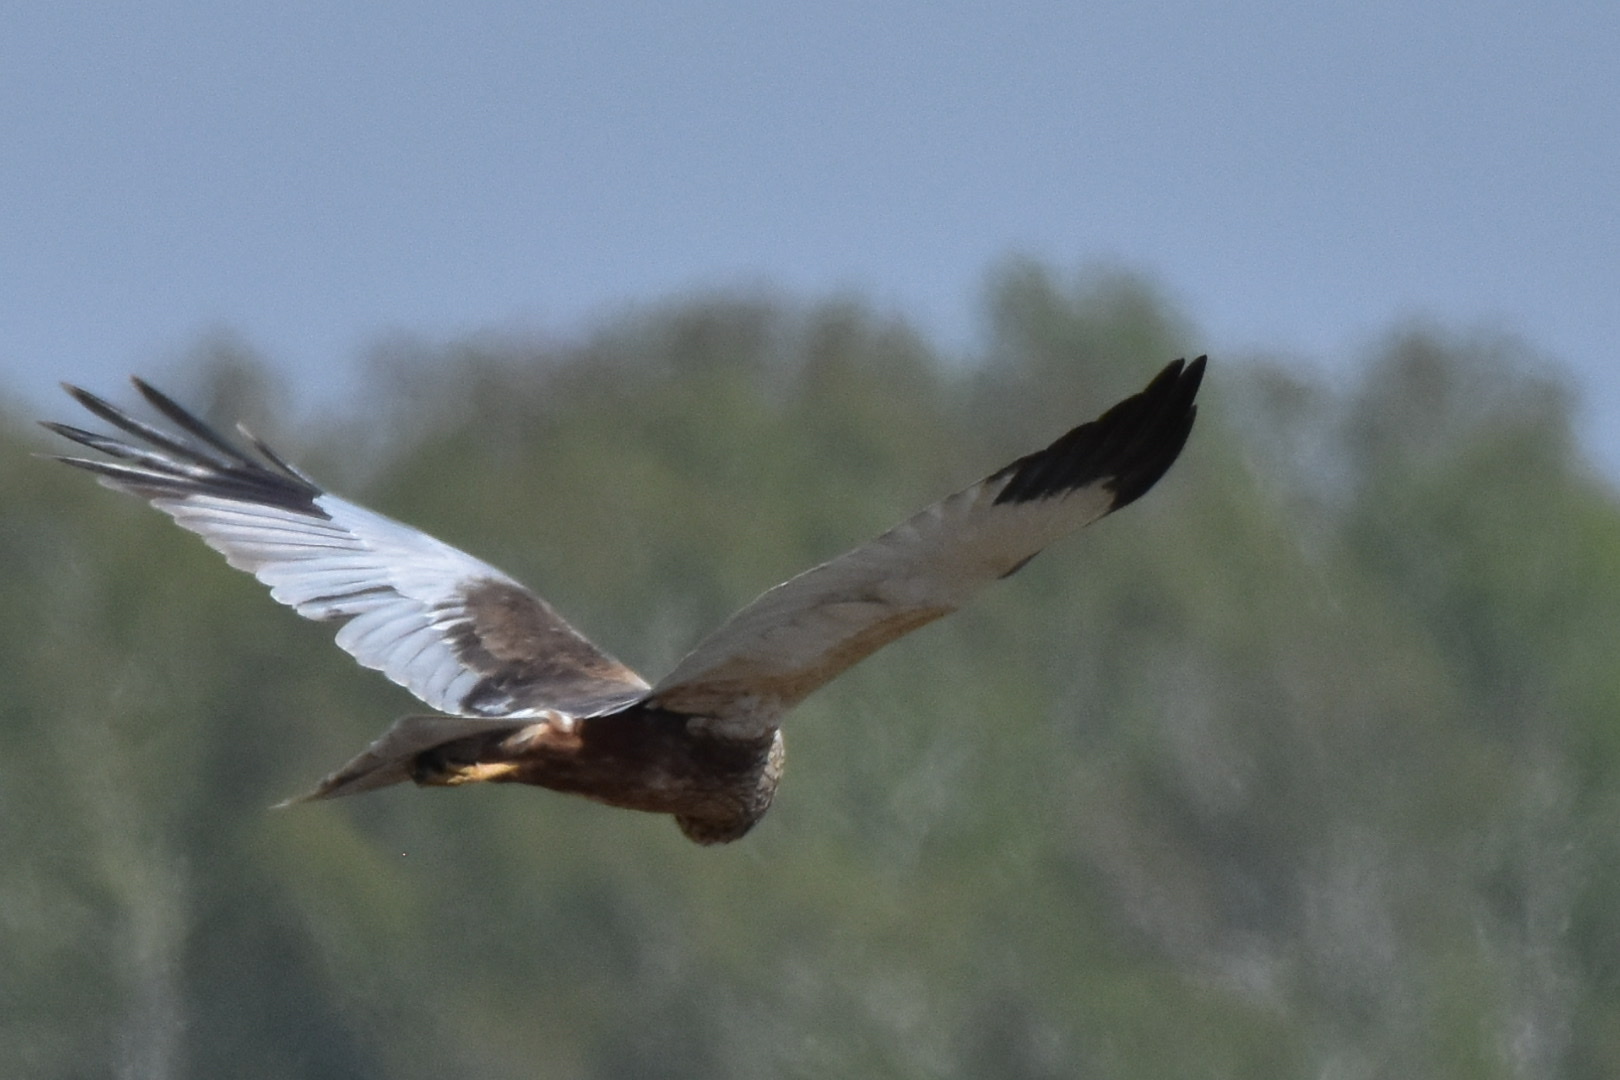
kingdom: Animalia
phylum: Chordata
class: Aves
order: Accipitriformes
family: Accipitridae
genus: Circus
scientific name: Circus aeruginosus
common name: Western marsh harrier
